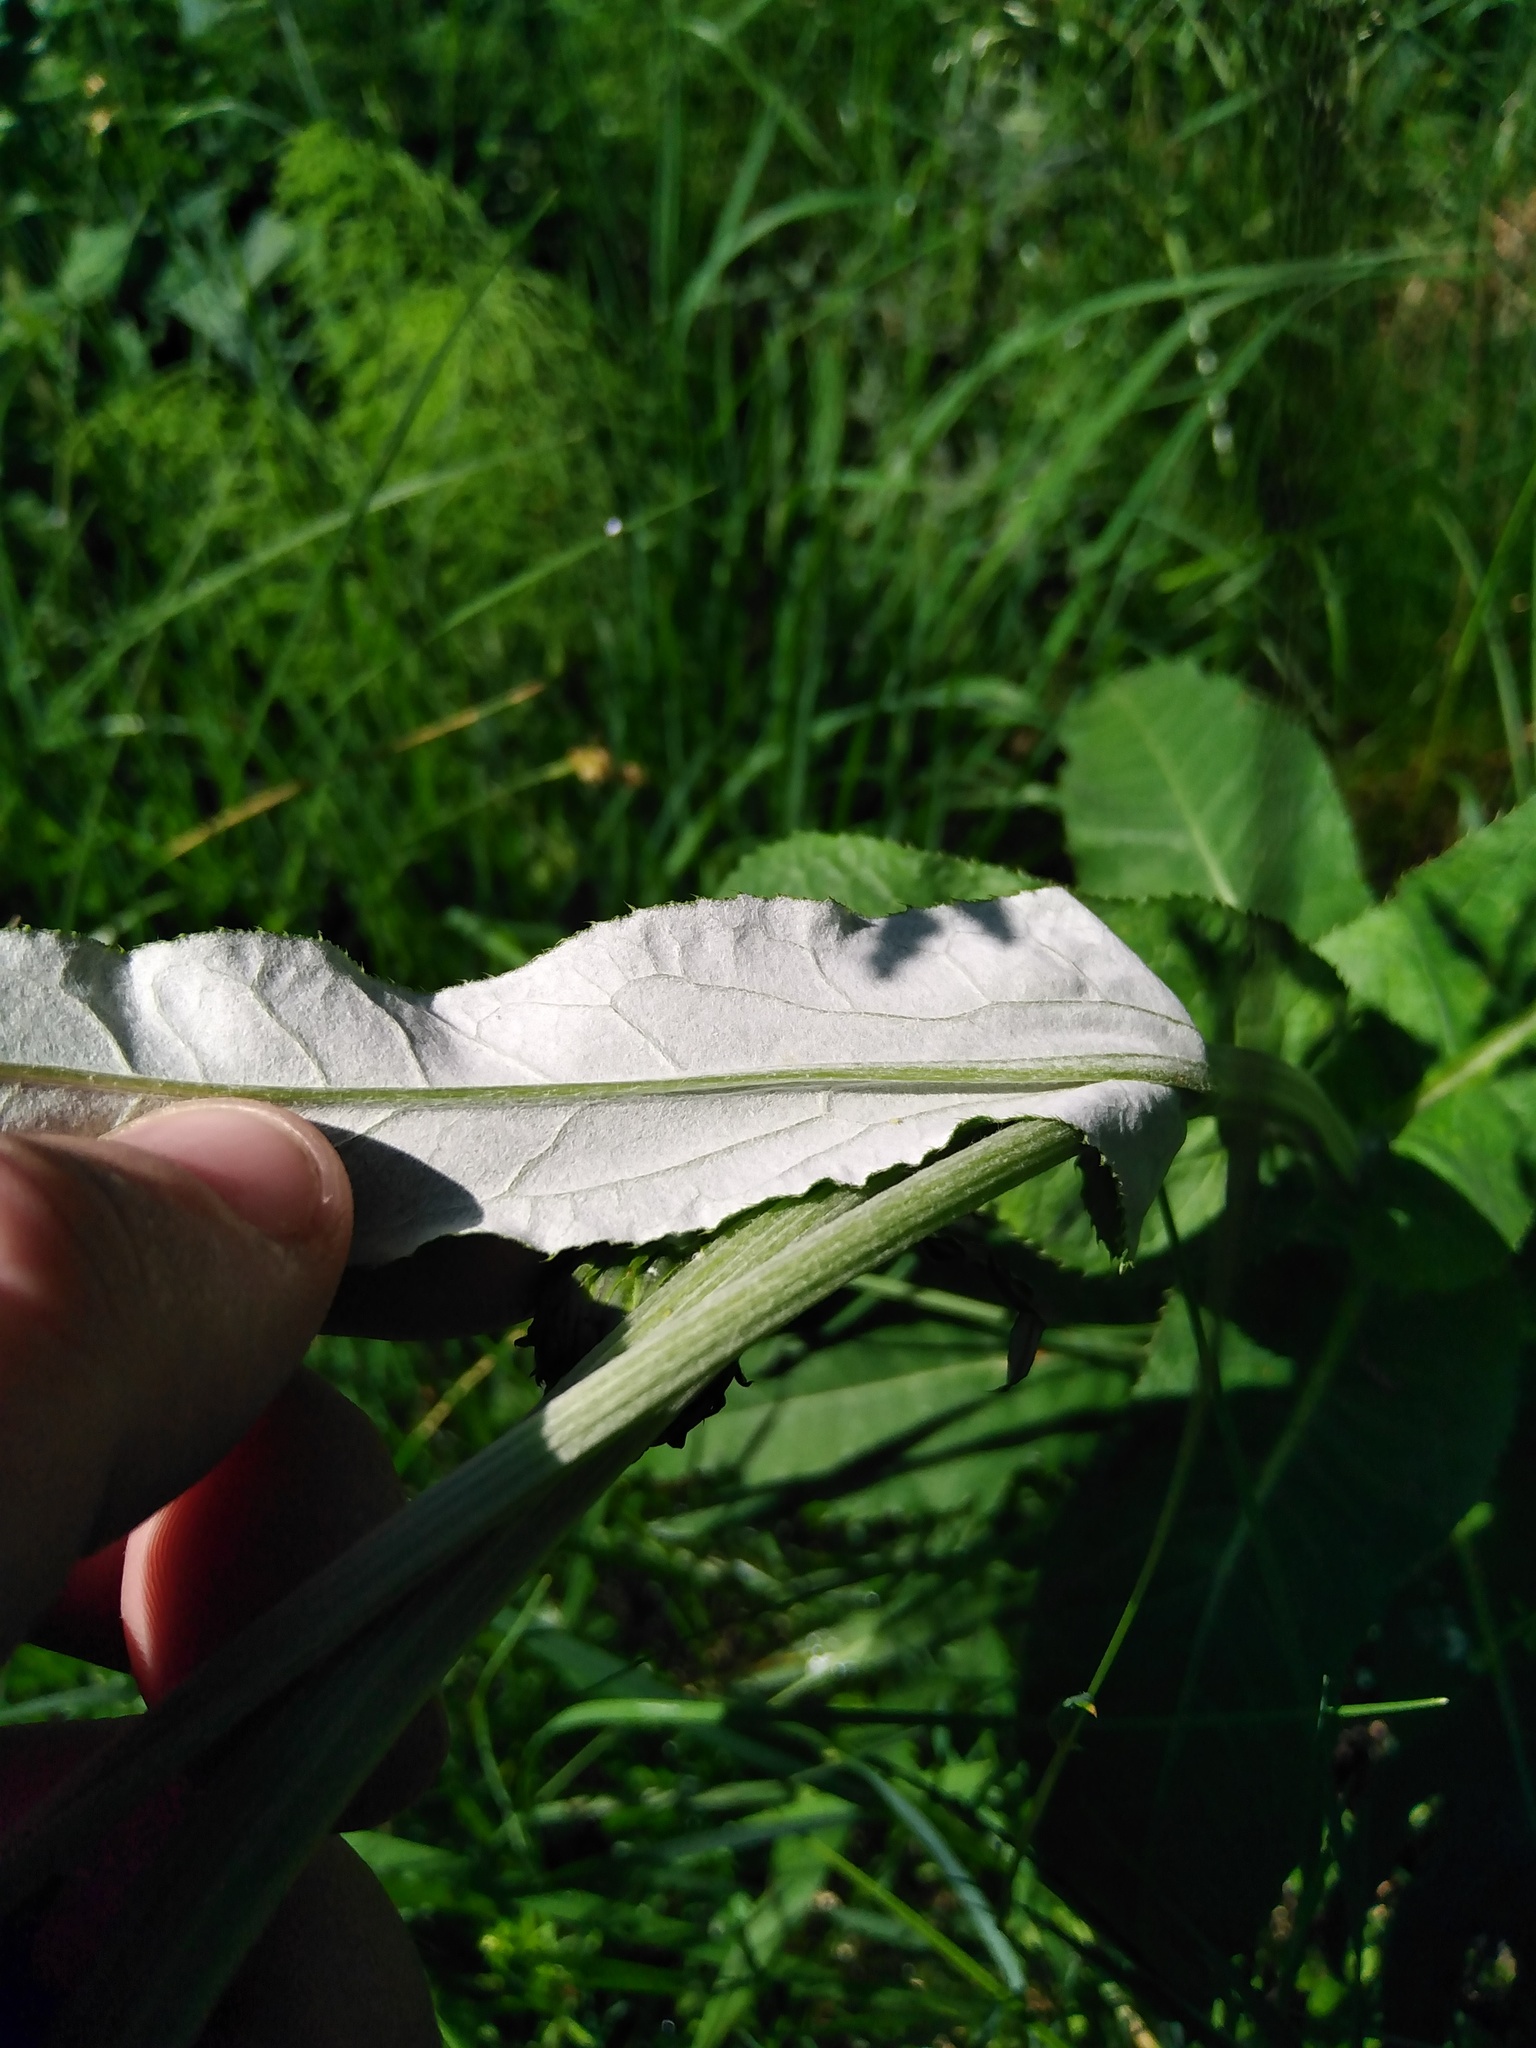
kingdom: Plantae
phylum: Tracheophyta
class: Magnoliopsida
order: Asterales
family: Asteraceae
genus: Cirsium
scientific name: Cirsium heterophyllum
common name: Melancholy thistle
